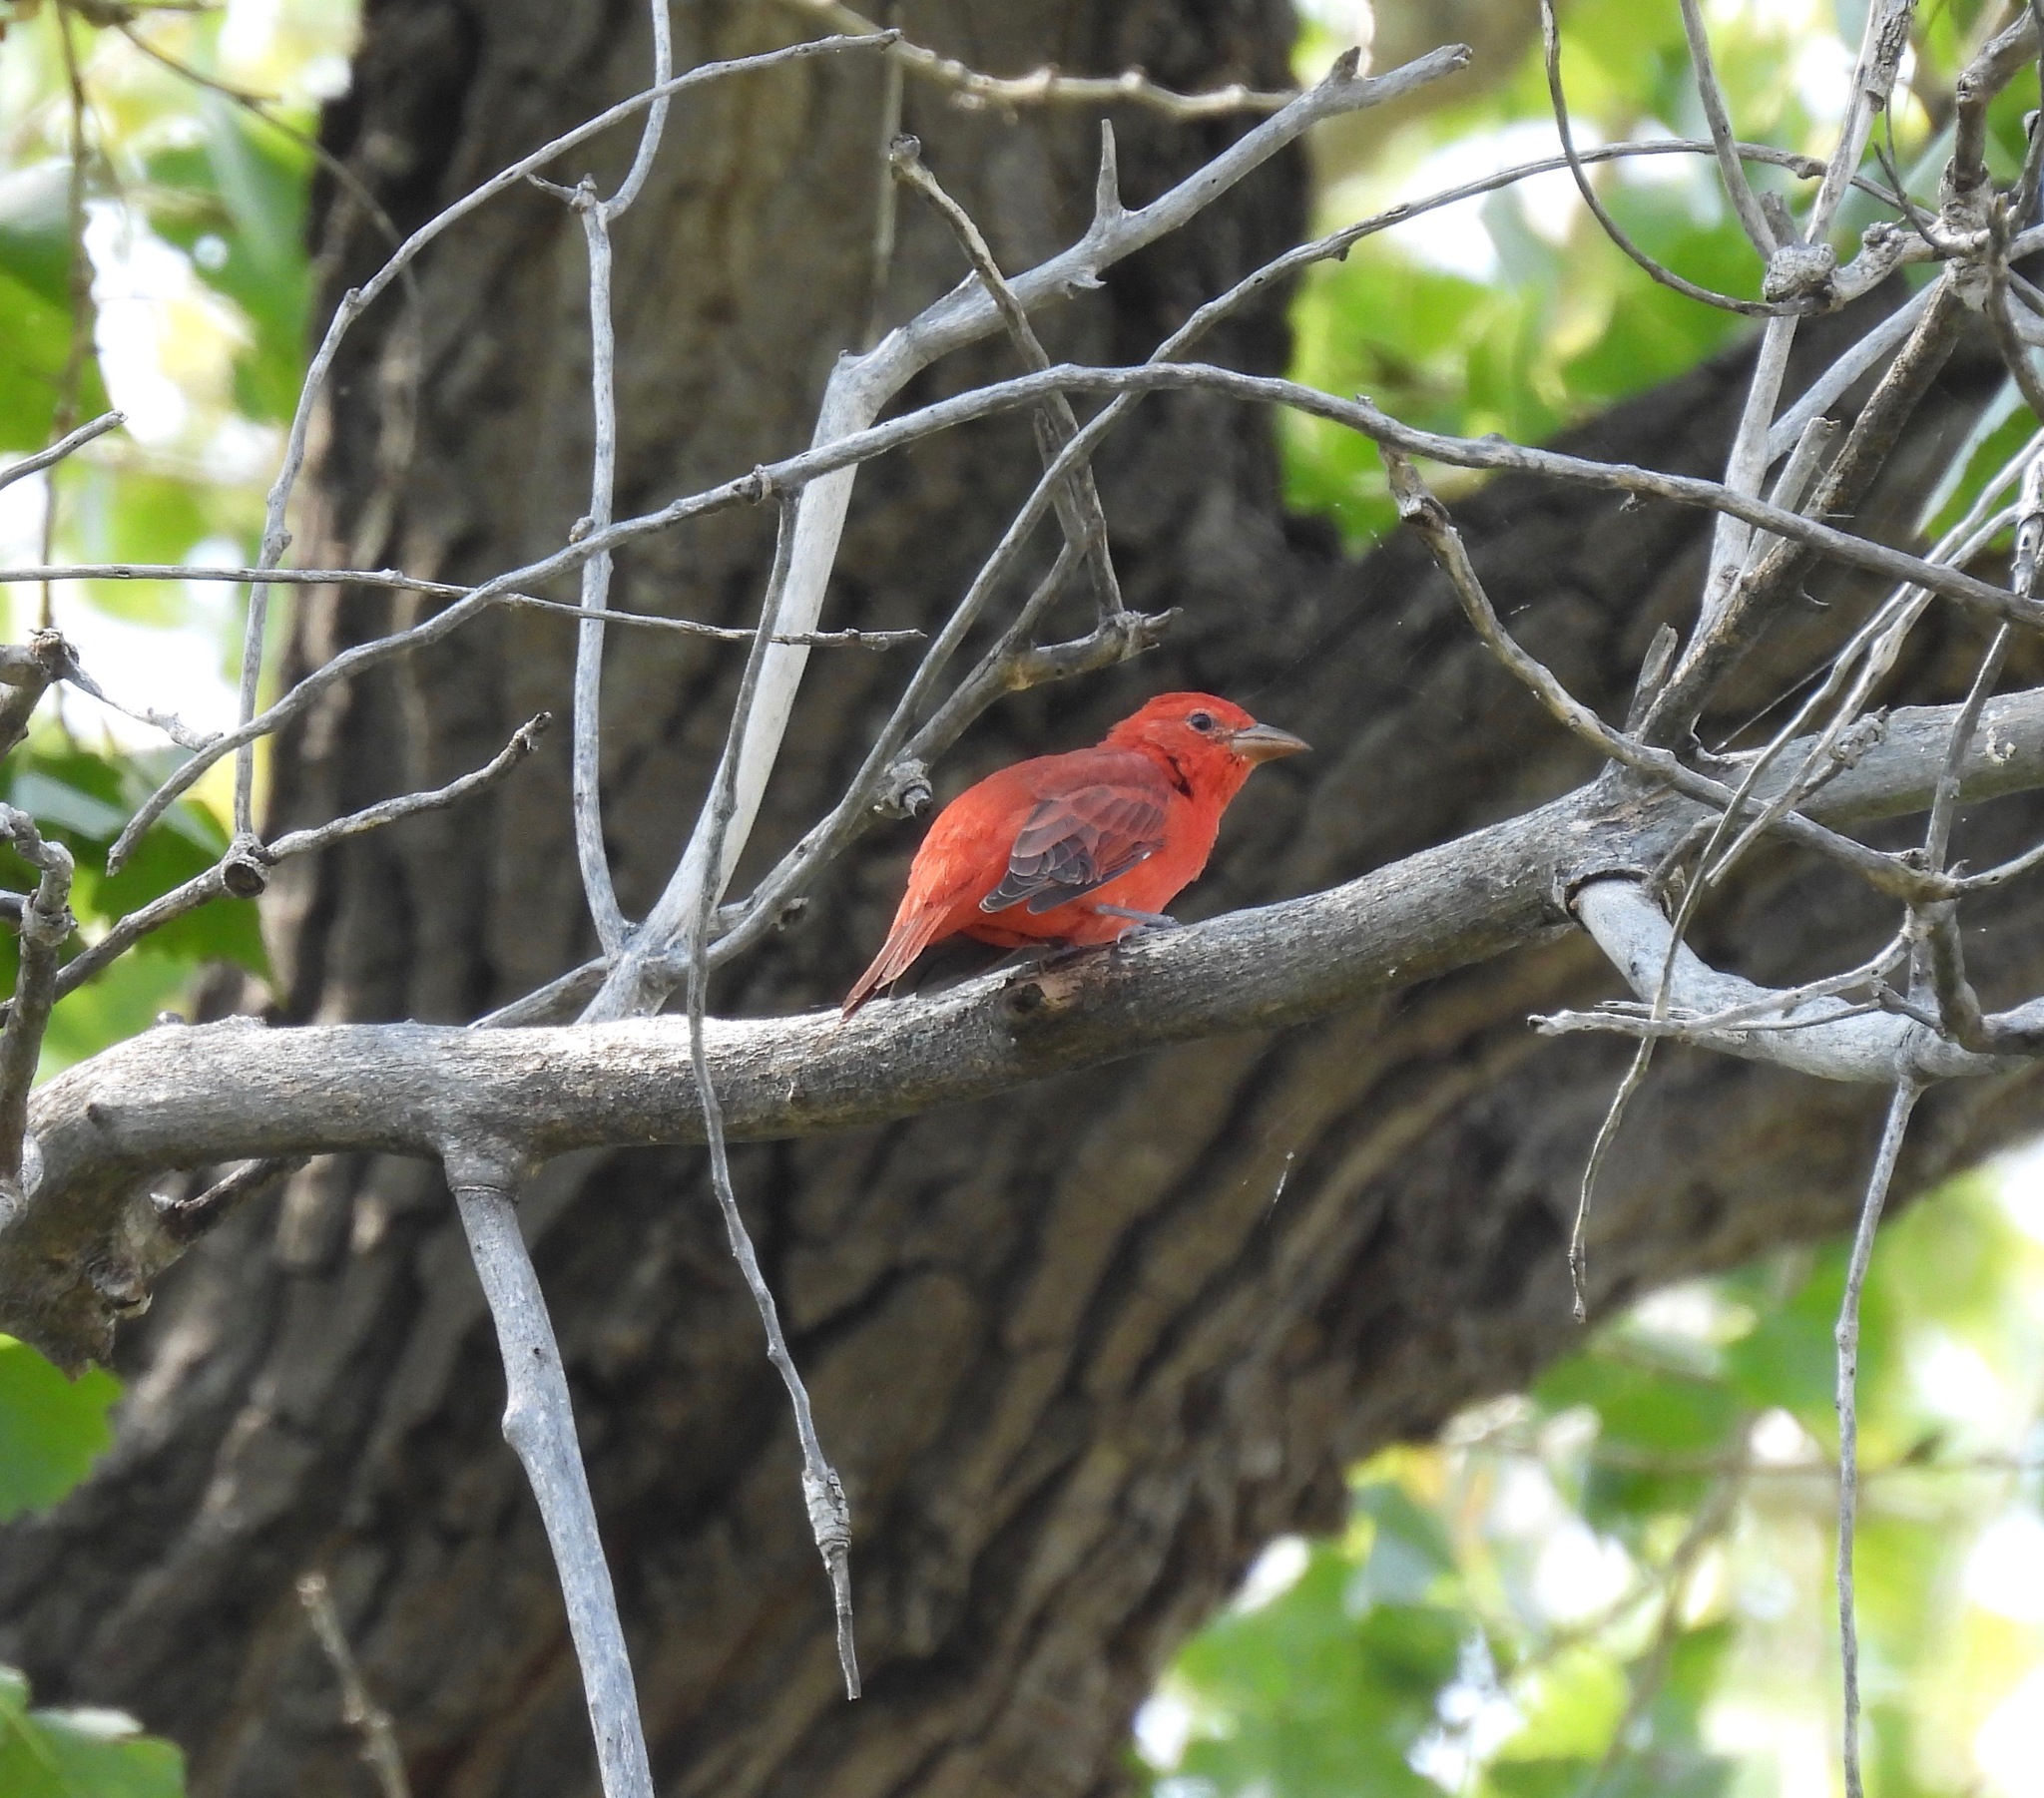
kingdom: Animalia
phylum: Chordata
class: Aves
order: Passeriformes
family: Cardinalidae
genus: Piranga
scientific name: Piranga rubra
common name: Summer tanager
